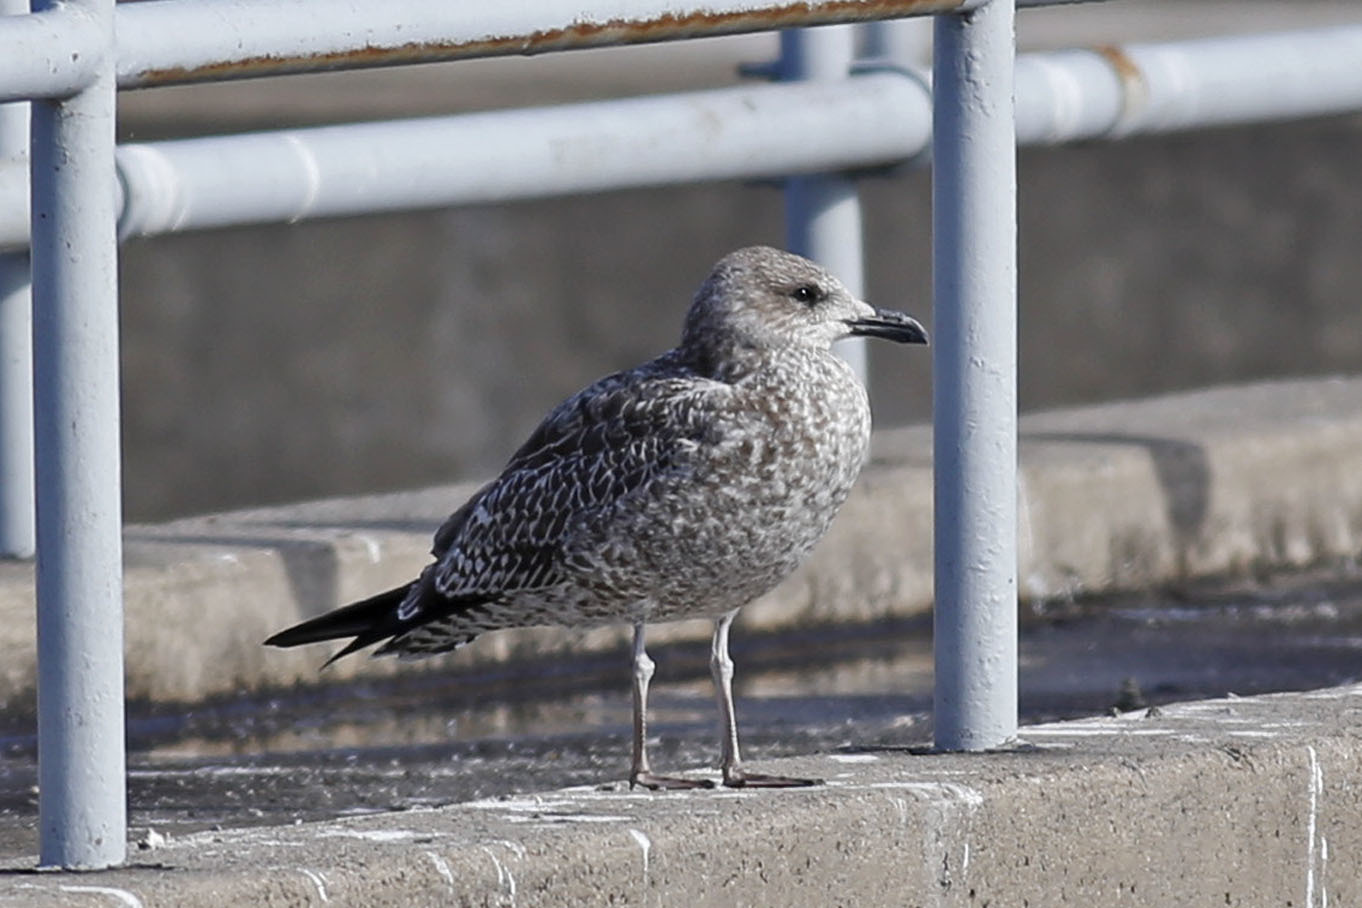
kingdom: Animalia
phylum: Chordata
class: Aves
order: Charadriiformes
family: Laridae
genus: Larus
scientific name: Larus fuscus
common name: Lesser black-backed gull
